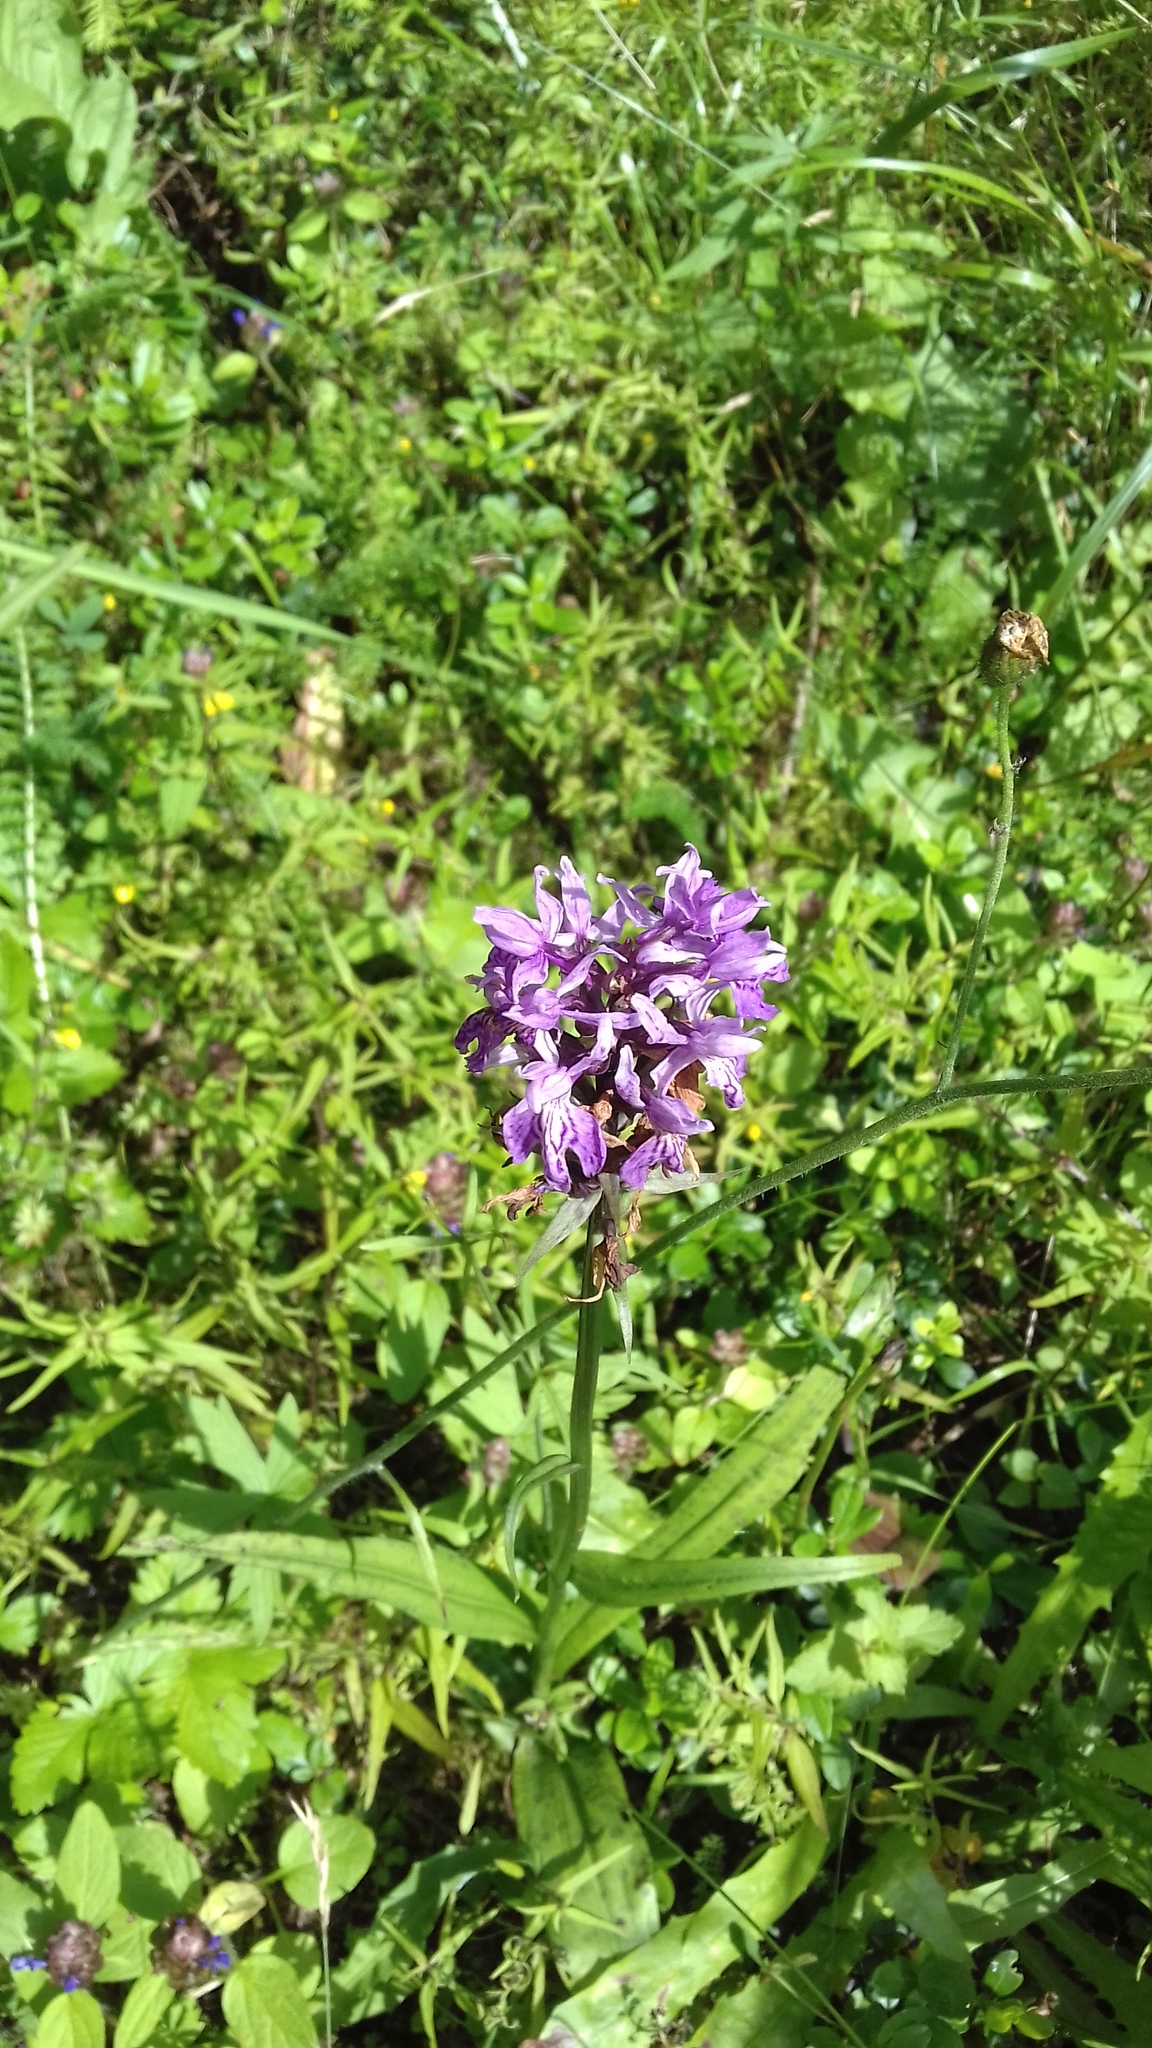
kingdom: Plantae
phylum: Tracheophyta
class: Liliopsida
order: Asparagales
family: Orchidaceae
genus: Dactylorhiza
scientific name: Dactylorhiza maculata
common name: Heath spotted-orchid
